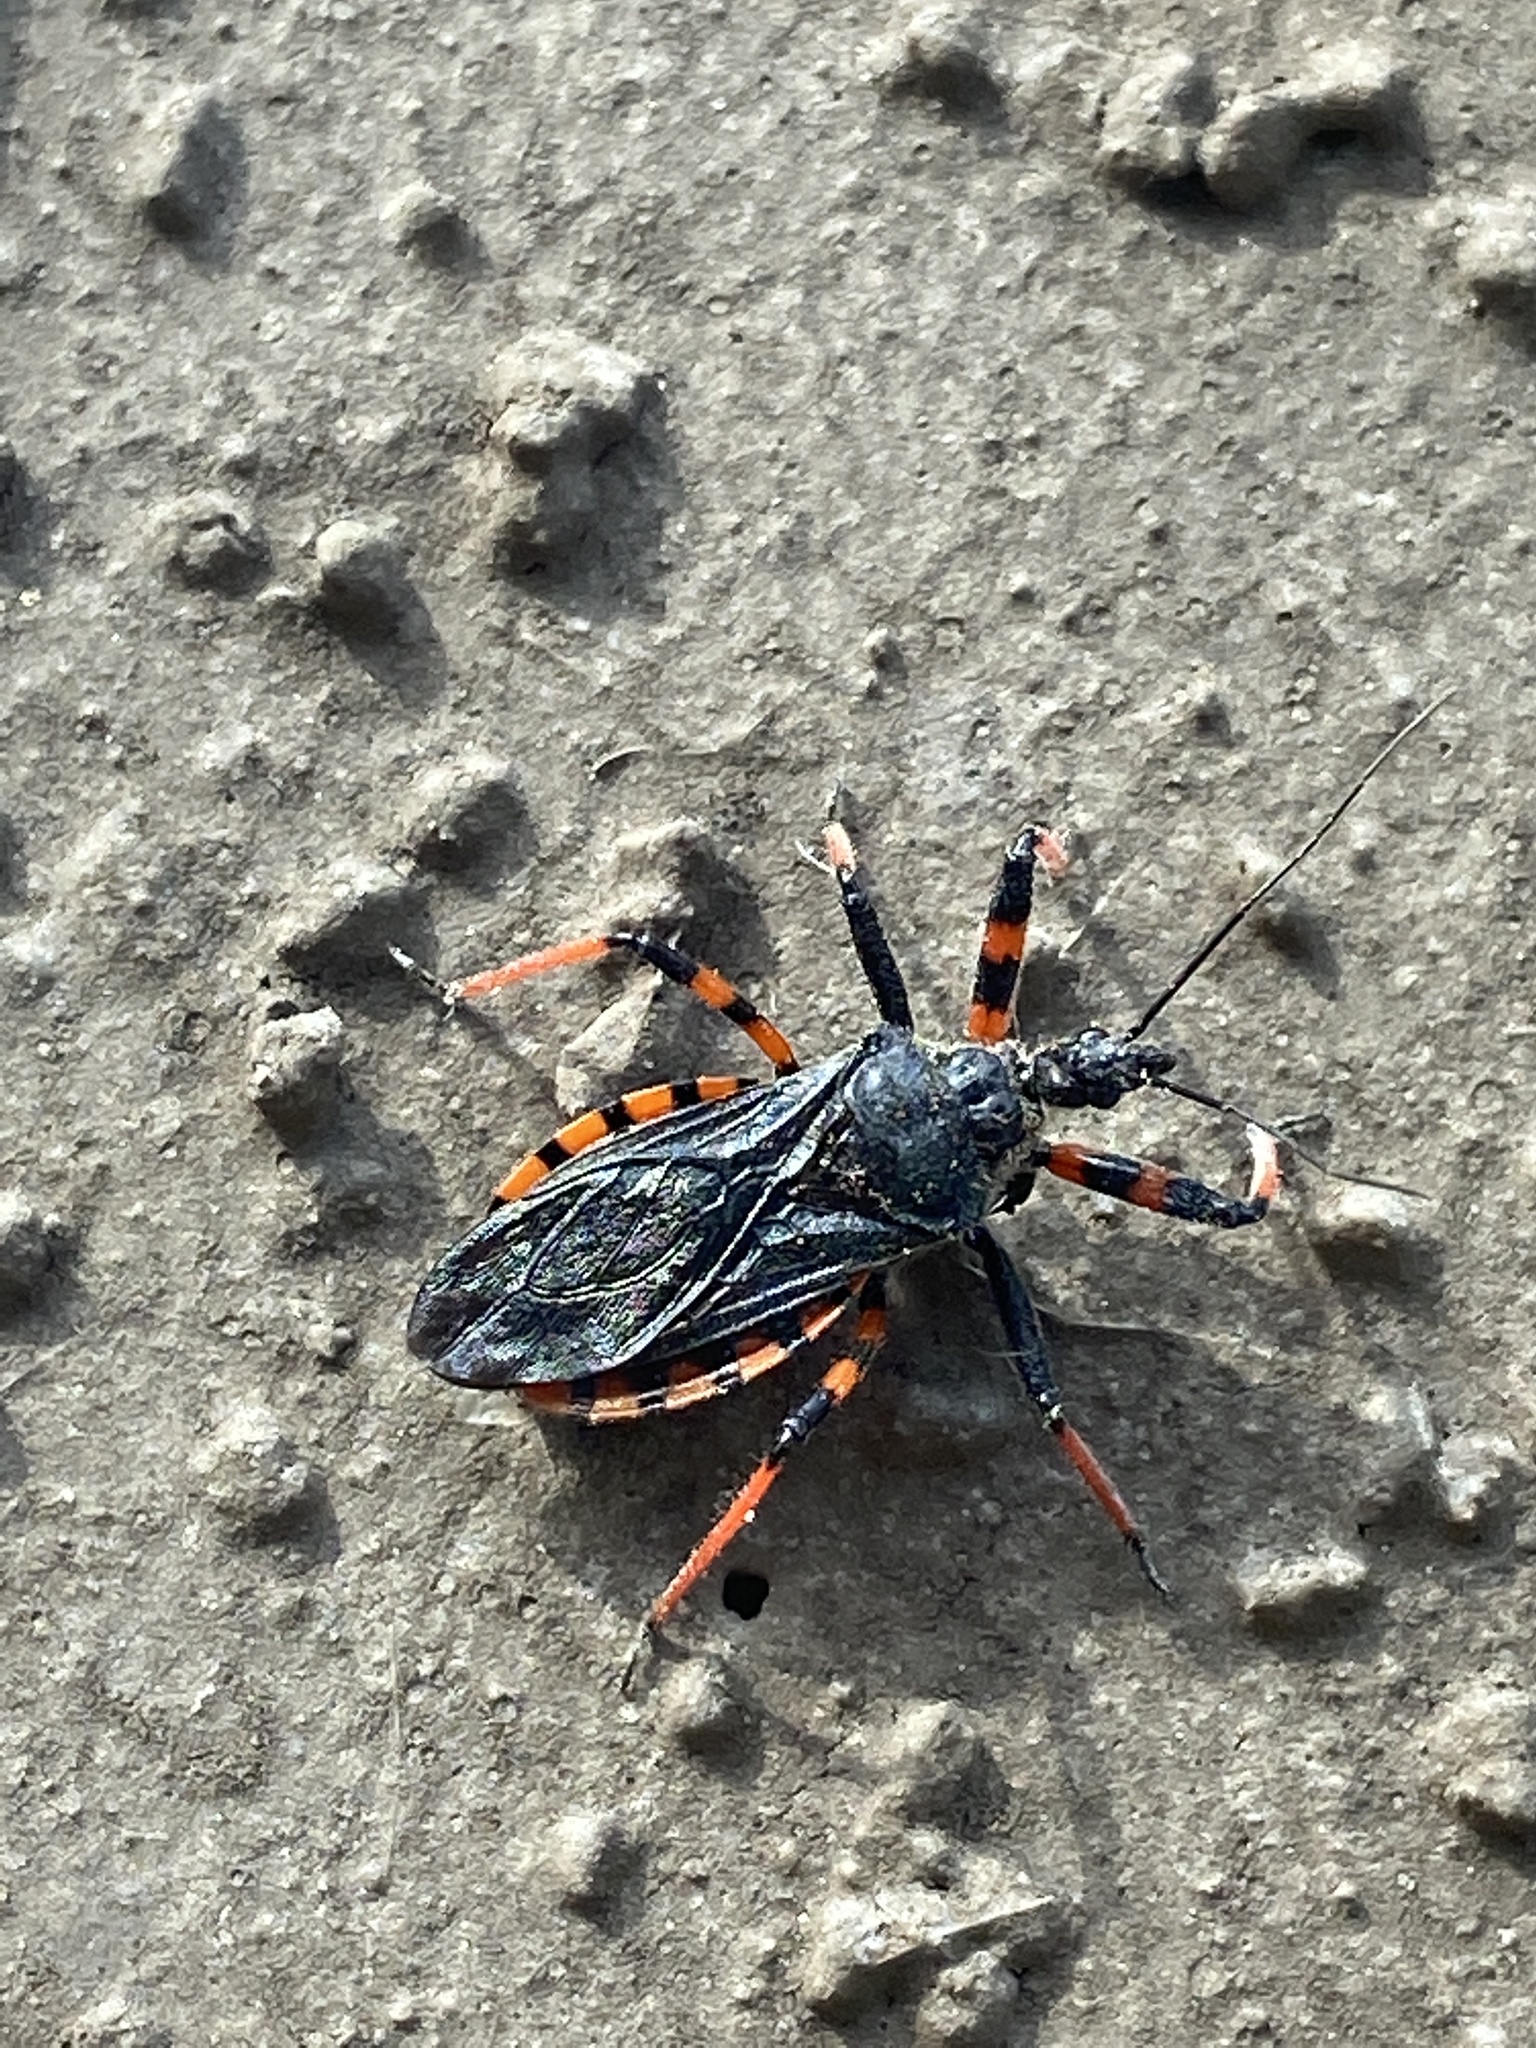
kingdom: Animalia
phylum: Arthropoda
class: Insecta
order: Hemiptera
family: Reduviidae
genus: Rhynocoris
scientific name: Rhynocoris annulatus
